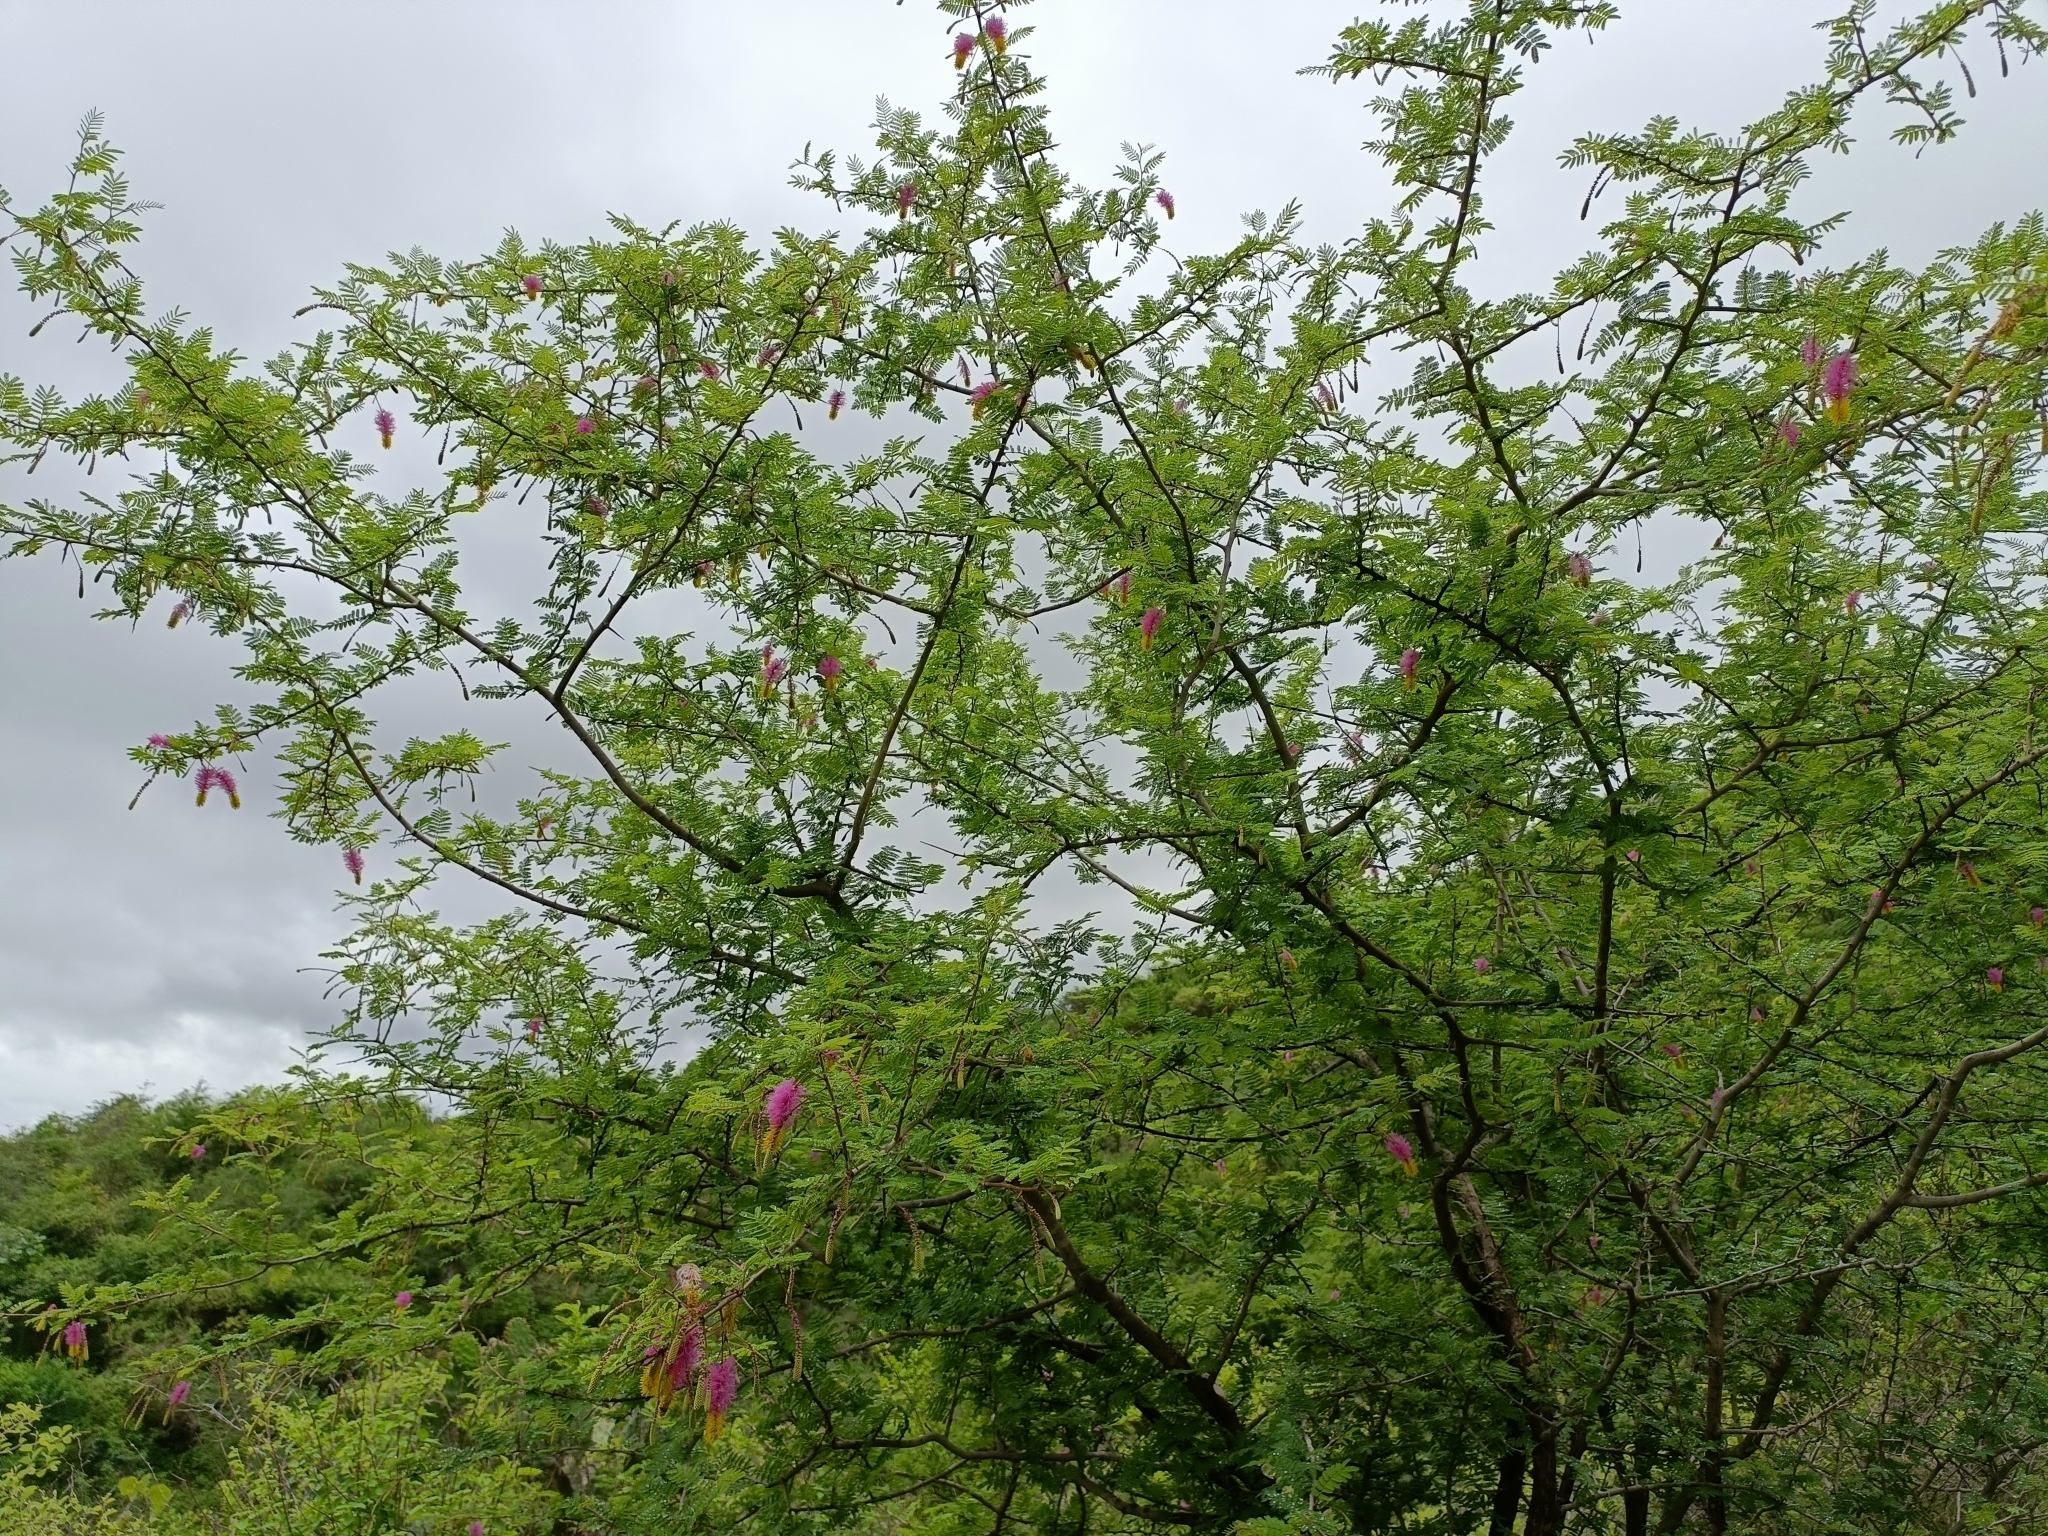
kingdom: Plantae
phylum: Tracheophyta
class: Magnoliopsida
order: Fabales
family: Fabaceae
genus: Dichrostachys
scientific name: Dichrostachys cinerea
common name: Sicklebush
